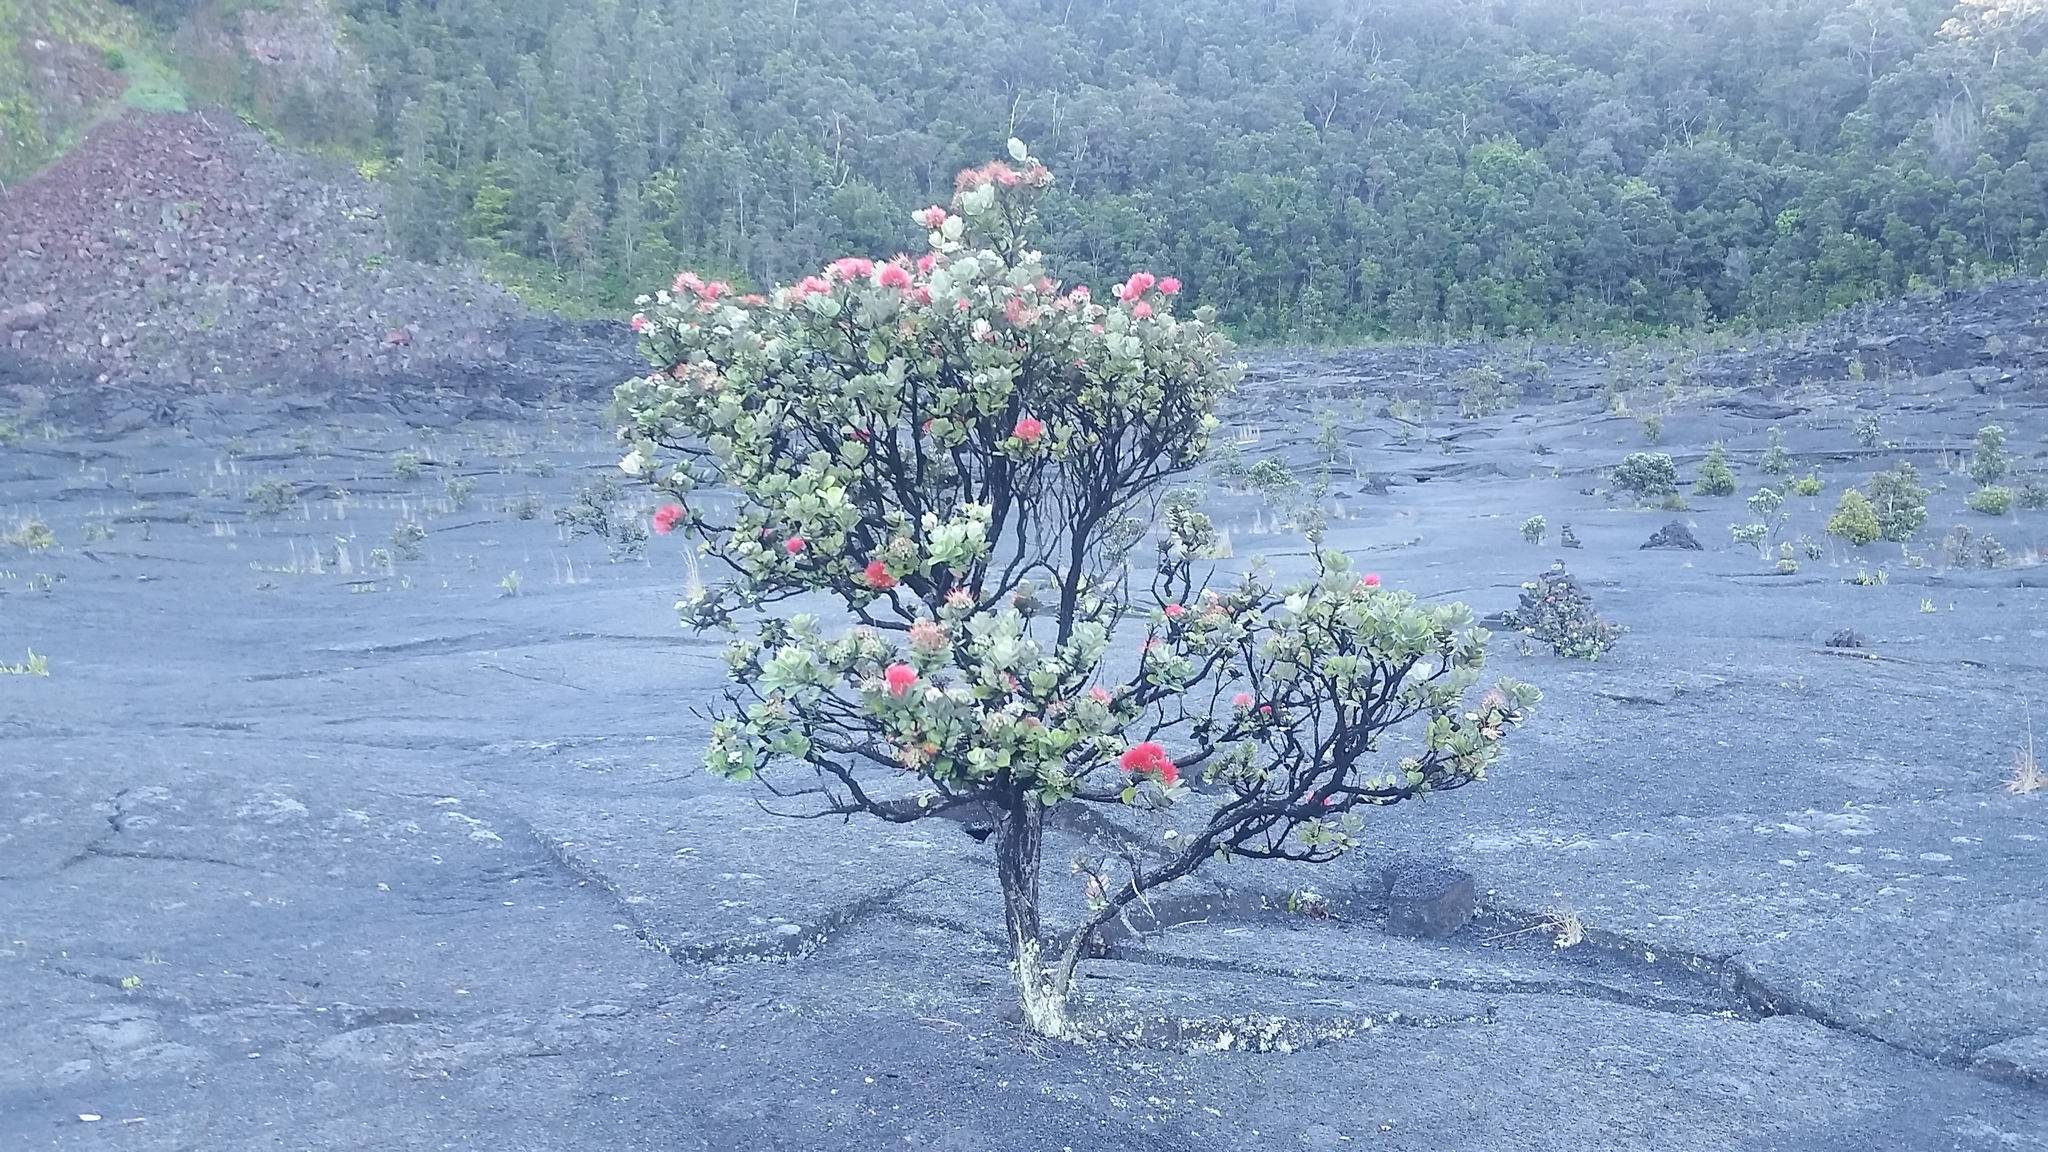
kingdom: Plantae
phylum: Tracheophyta
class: Magnoliopsida
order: Myrtales
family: Myrtaceae
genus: Metrosideros
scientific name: Metrosideros polymorpha
